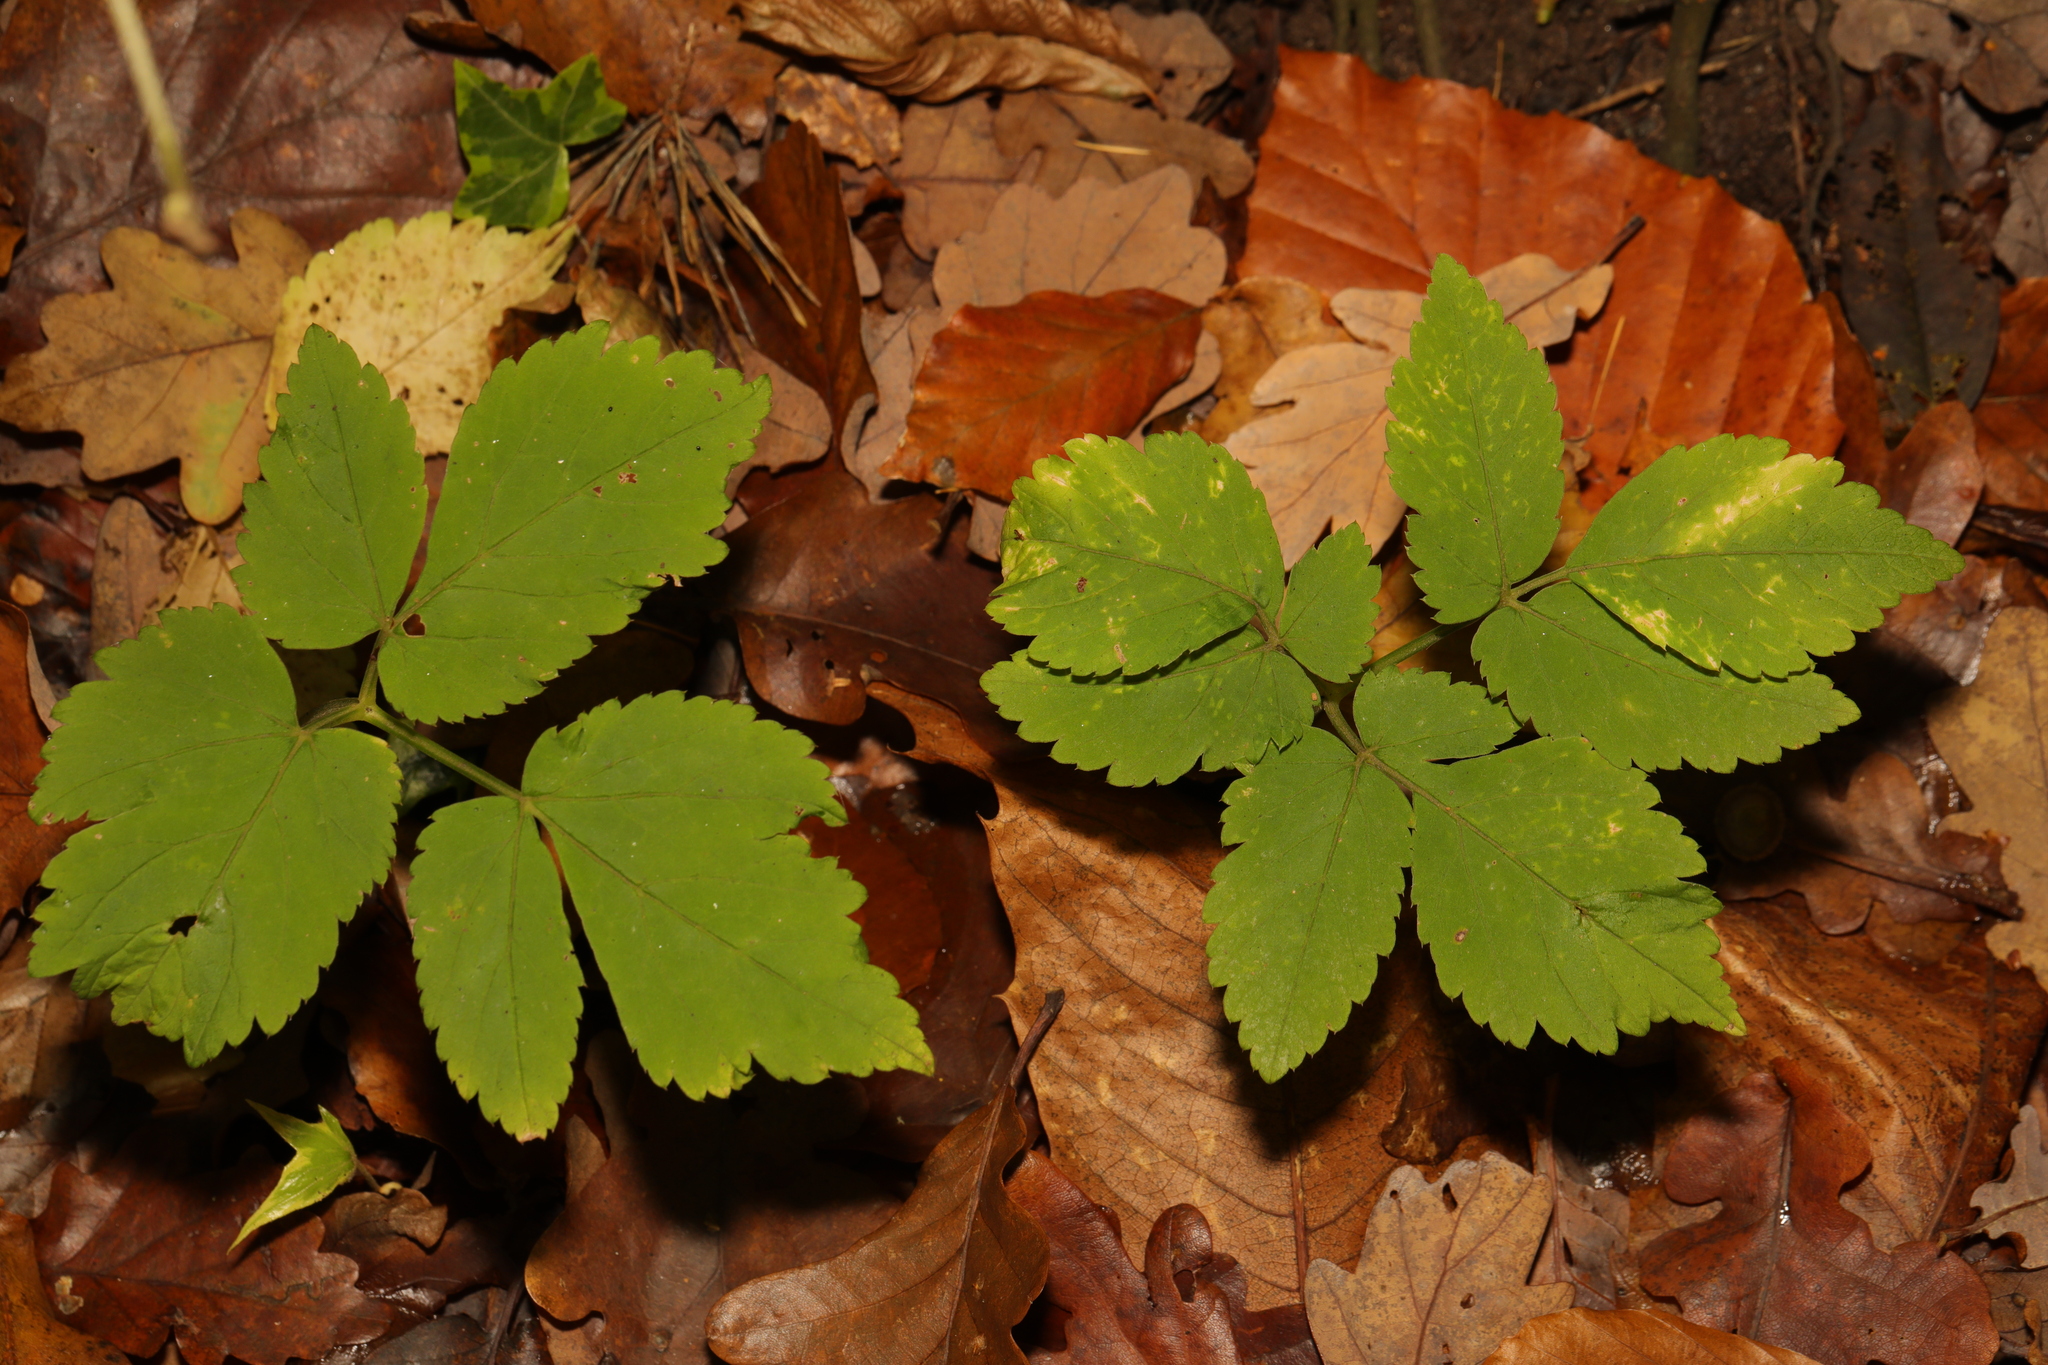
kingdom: Plantae
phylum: Tracheophyta
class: Magnoliopsida
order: Apiales
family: Apiaceae
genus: Aegopodium
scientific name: Aegopodium podagraria
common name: Ground-elder
